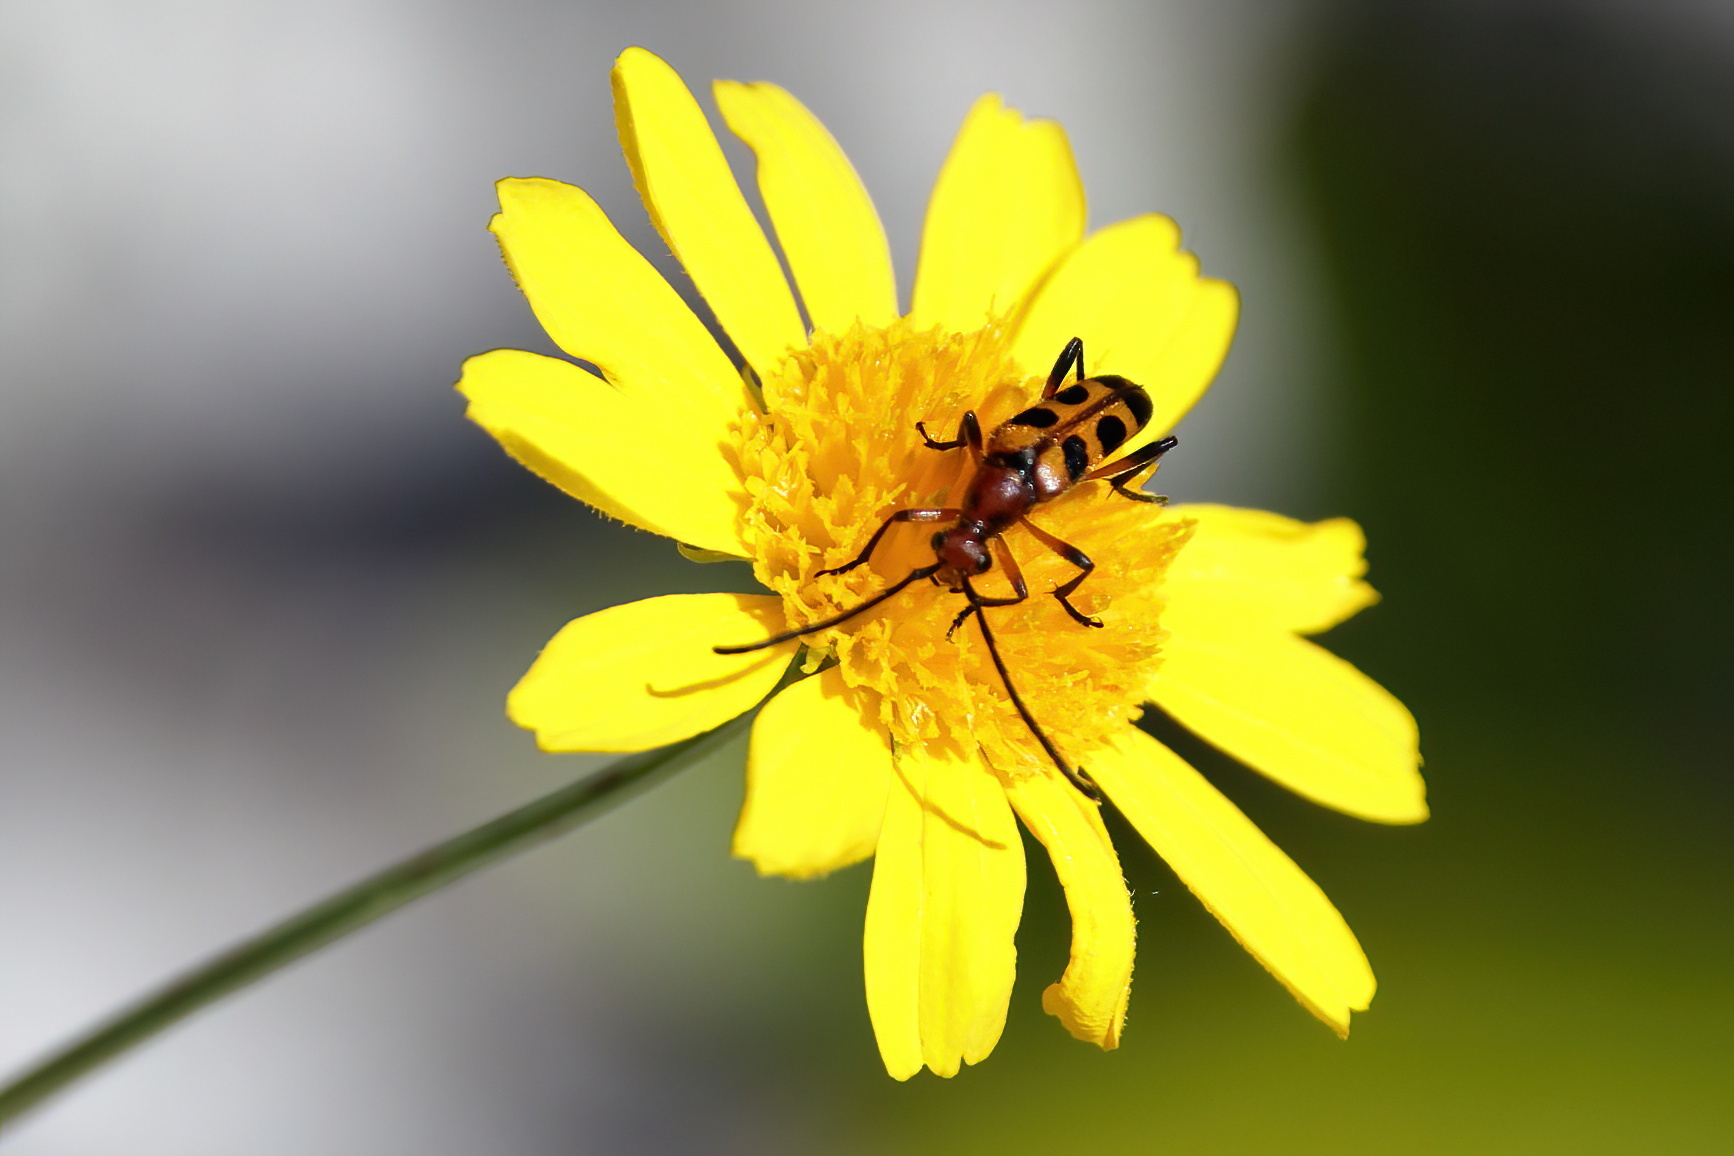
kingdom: Animalia
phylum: Arthropoda
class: Insecta
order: Coleoptera
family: Cerambycidae
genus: Strangalia
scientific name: Strangalia sexnotata
